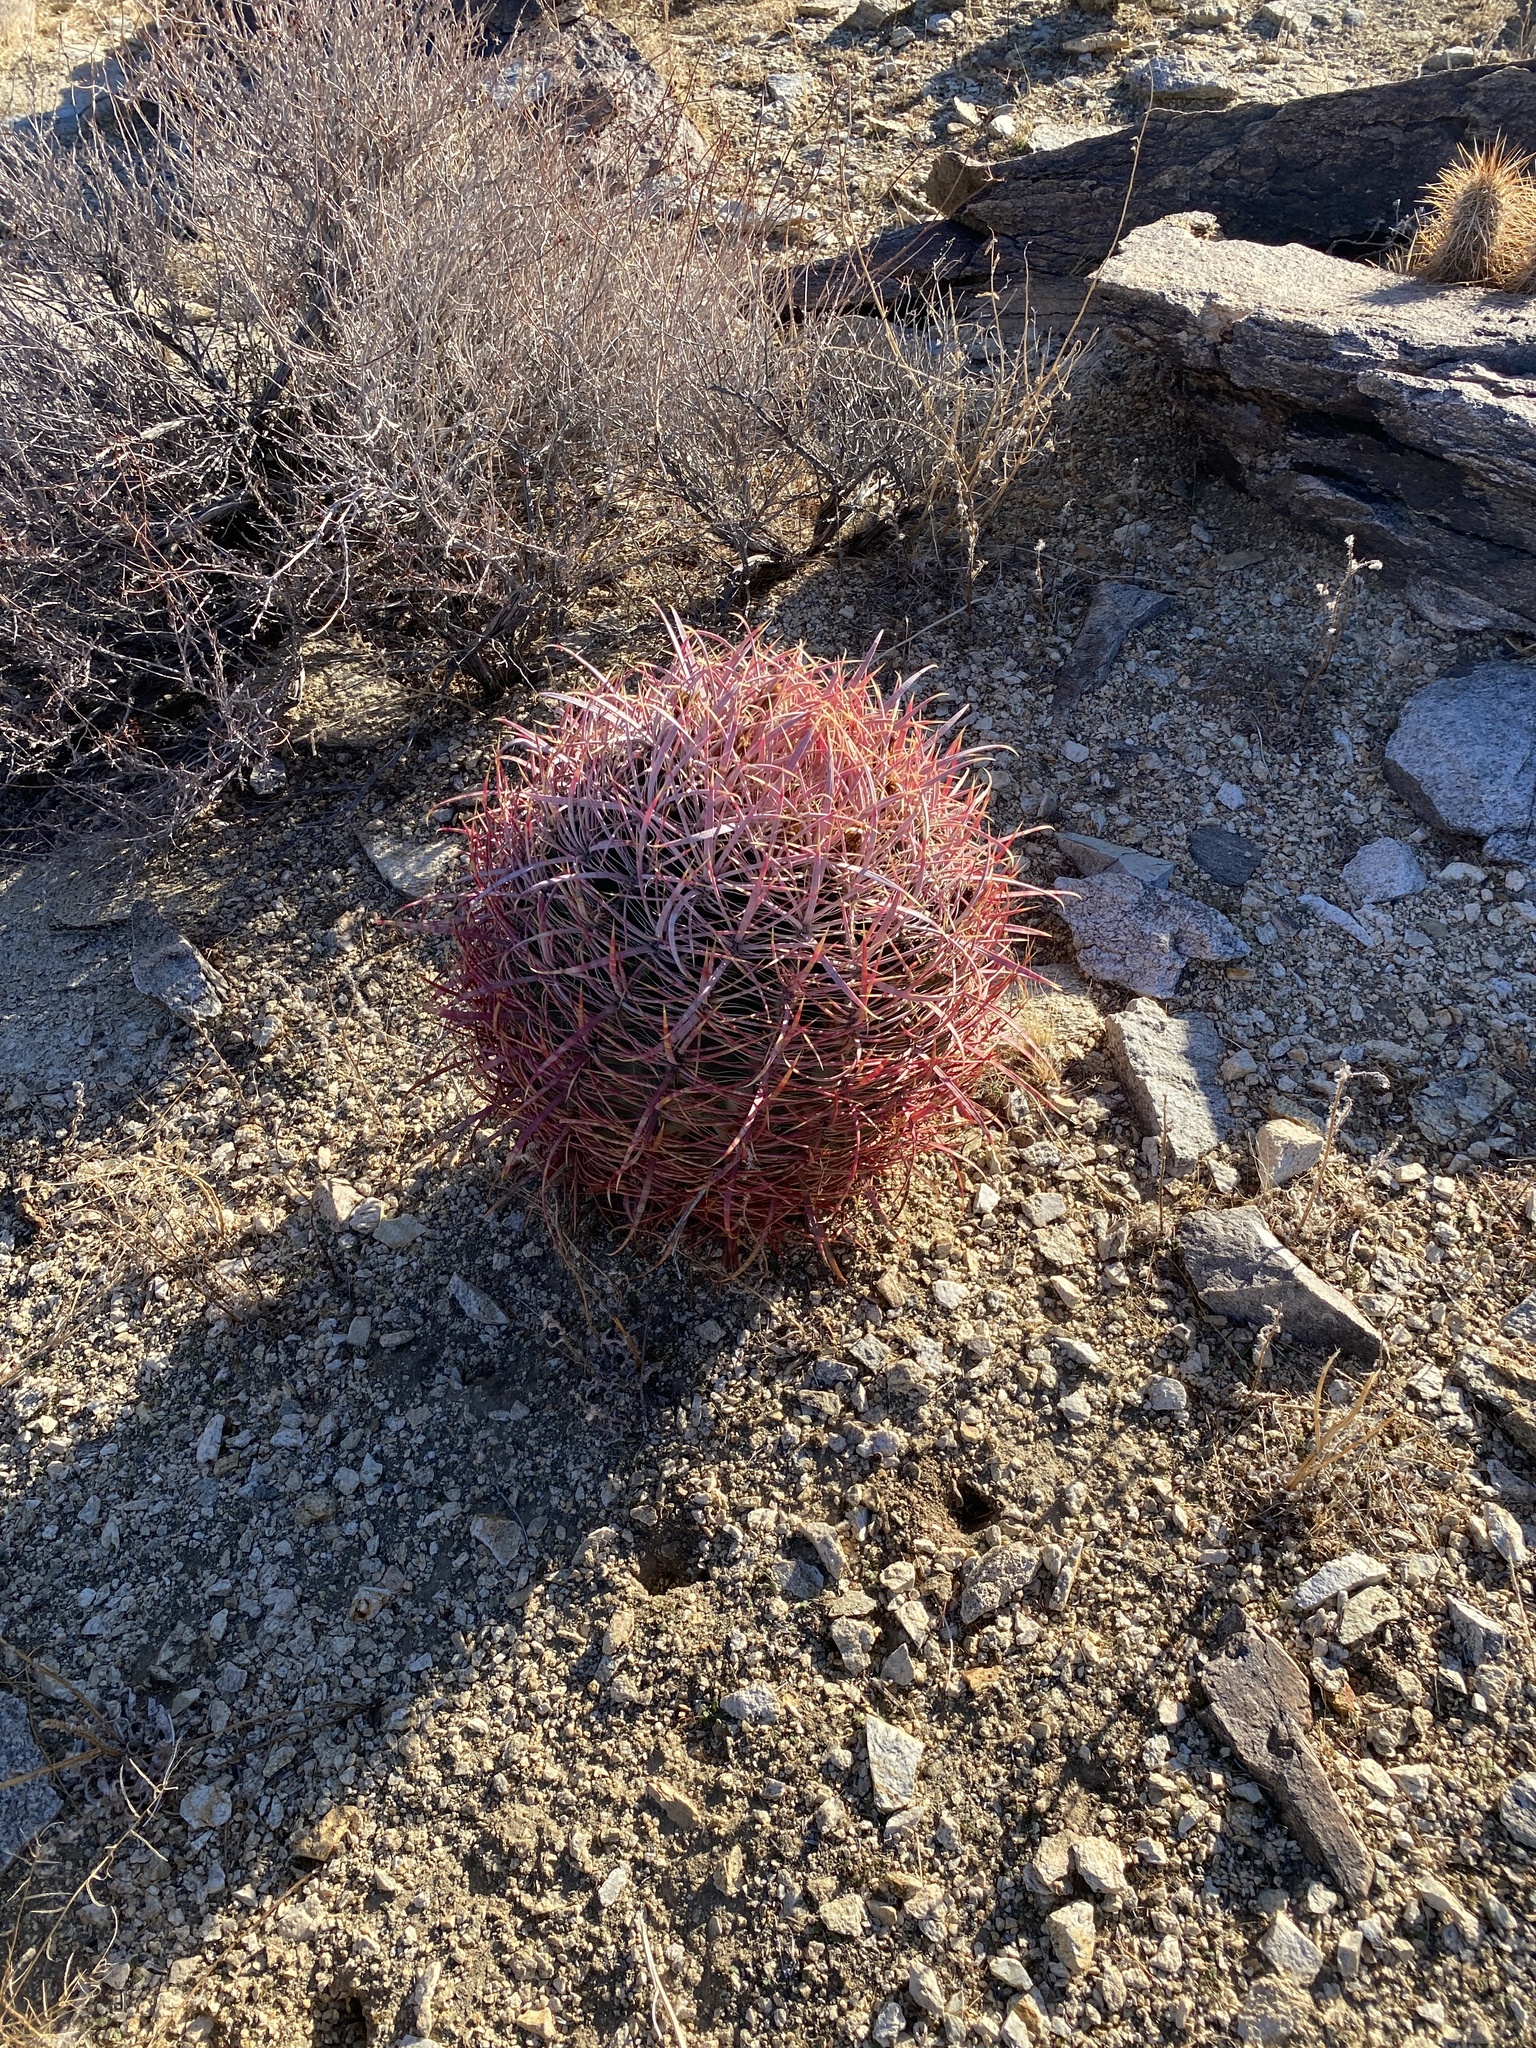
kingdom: Plantae
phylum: Tracheophyta
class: Magnoliopsida
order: Caryophyllales
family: Cactaceae
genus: Ferocactus
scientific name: Ferocactus cylindraceus
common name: California barrel cactus
